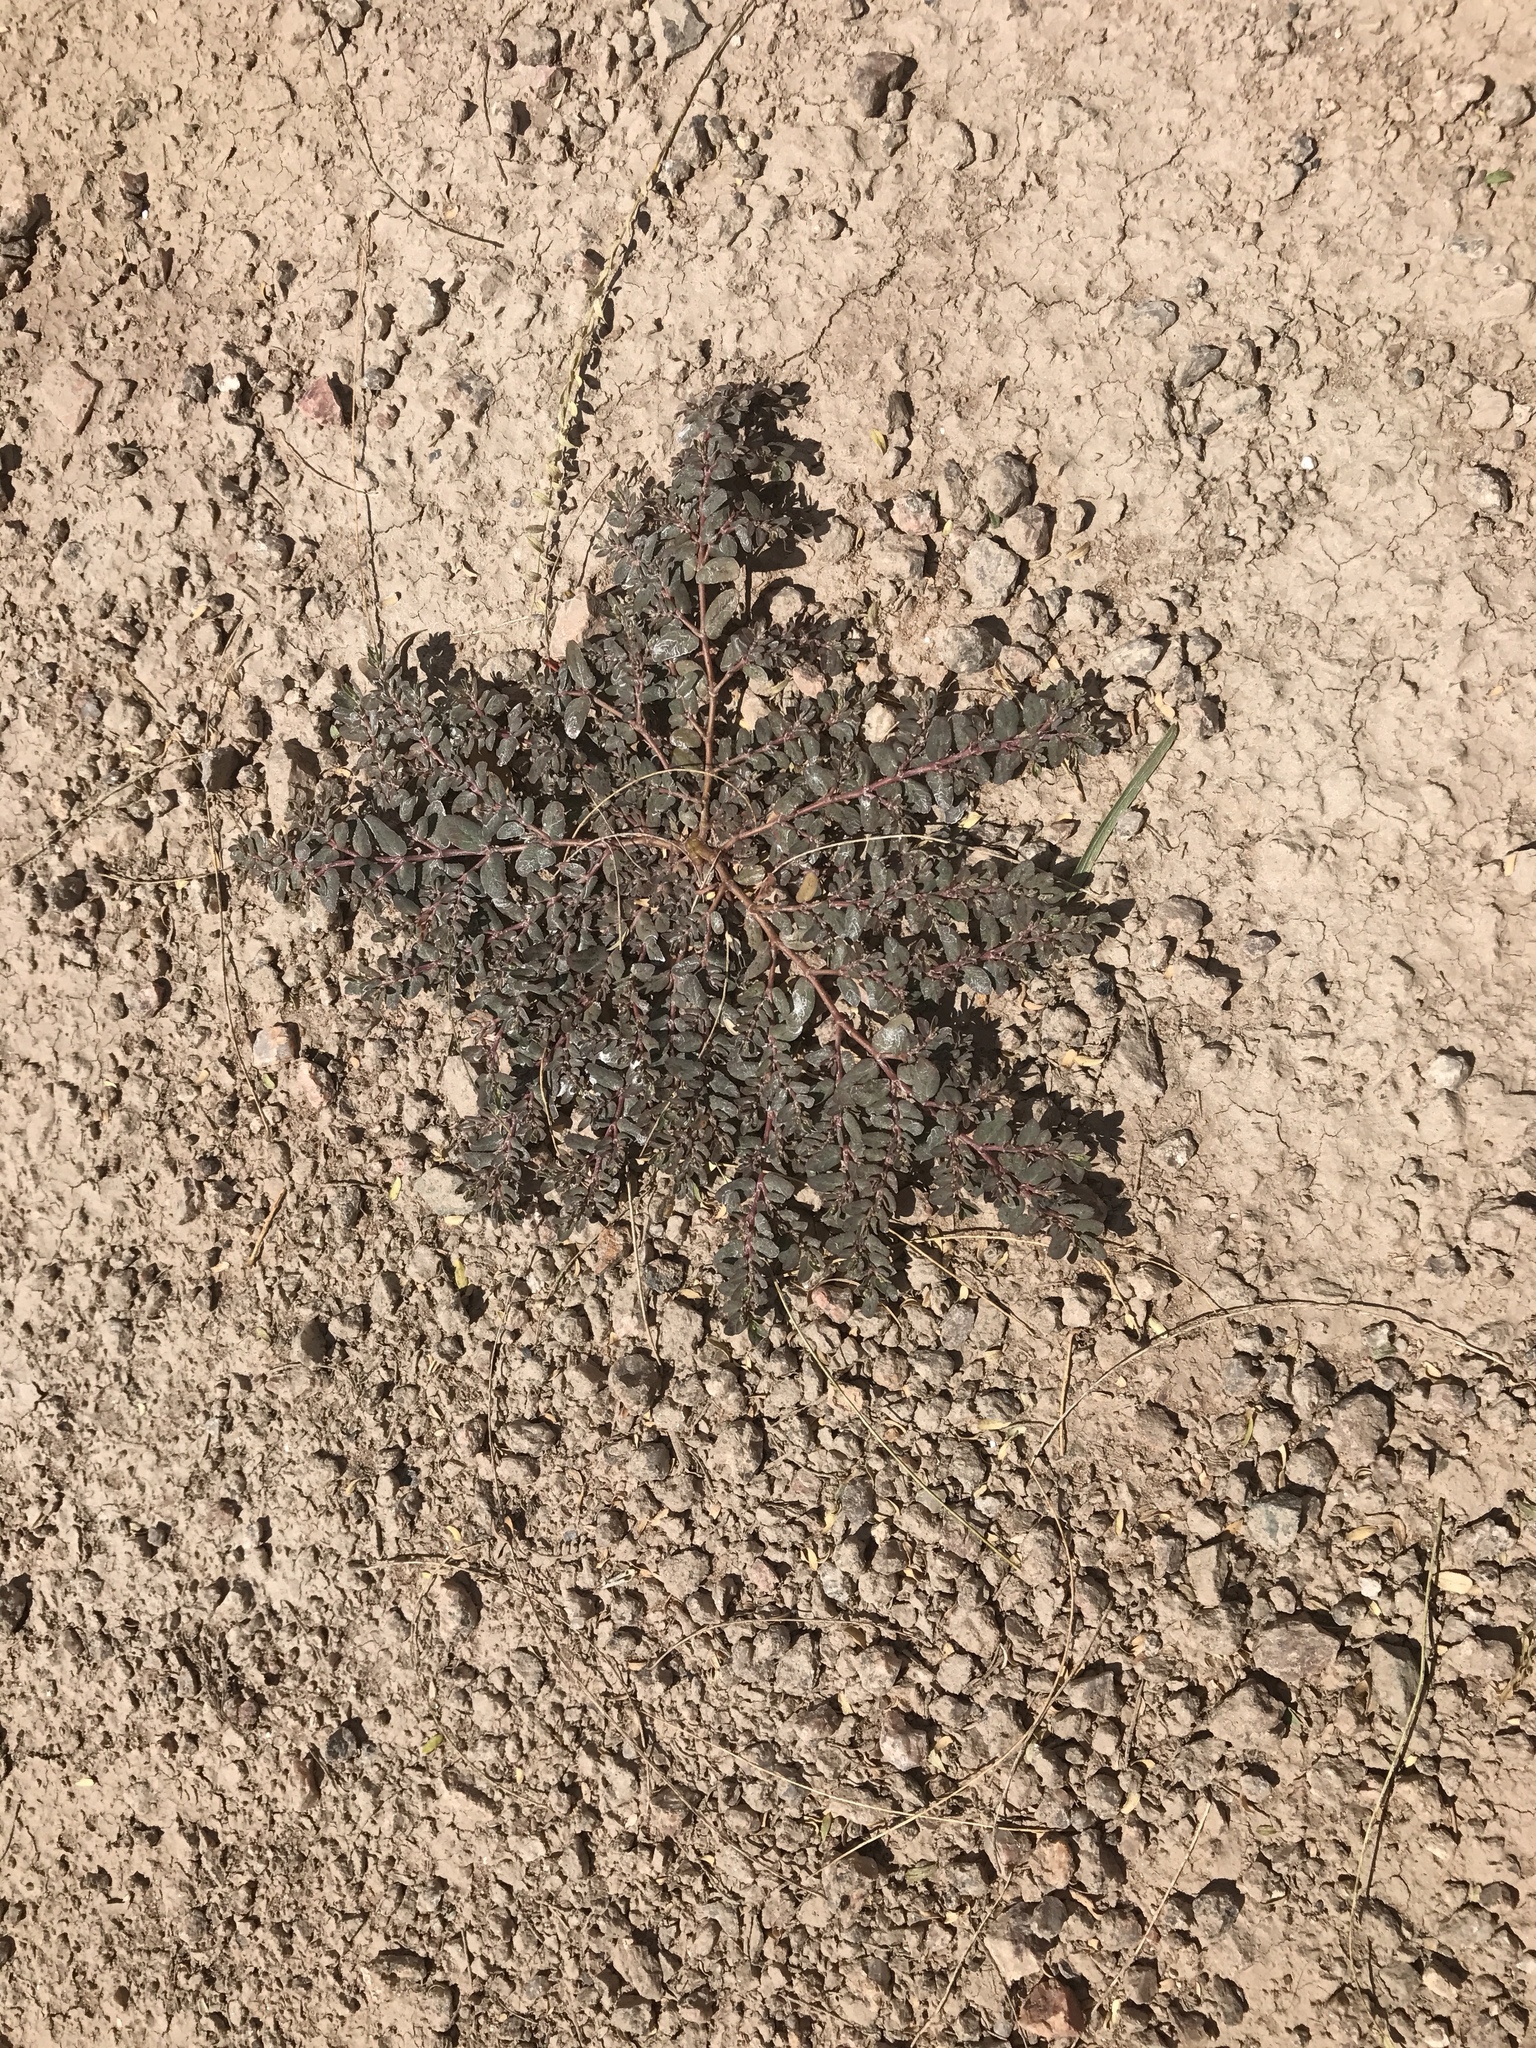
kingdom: Plantae
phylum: Tracheophyta
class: Magnoliopsida
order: Malpighiales
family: Euphorbiaceae
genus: Euphorbia
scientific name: Euphorbia abramsiana
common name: Abram's spurge
